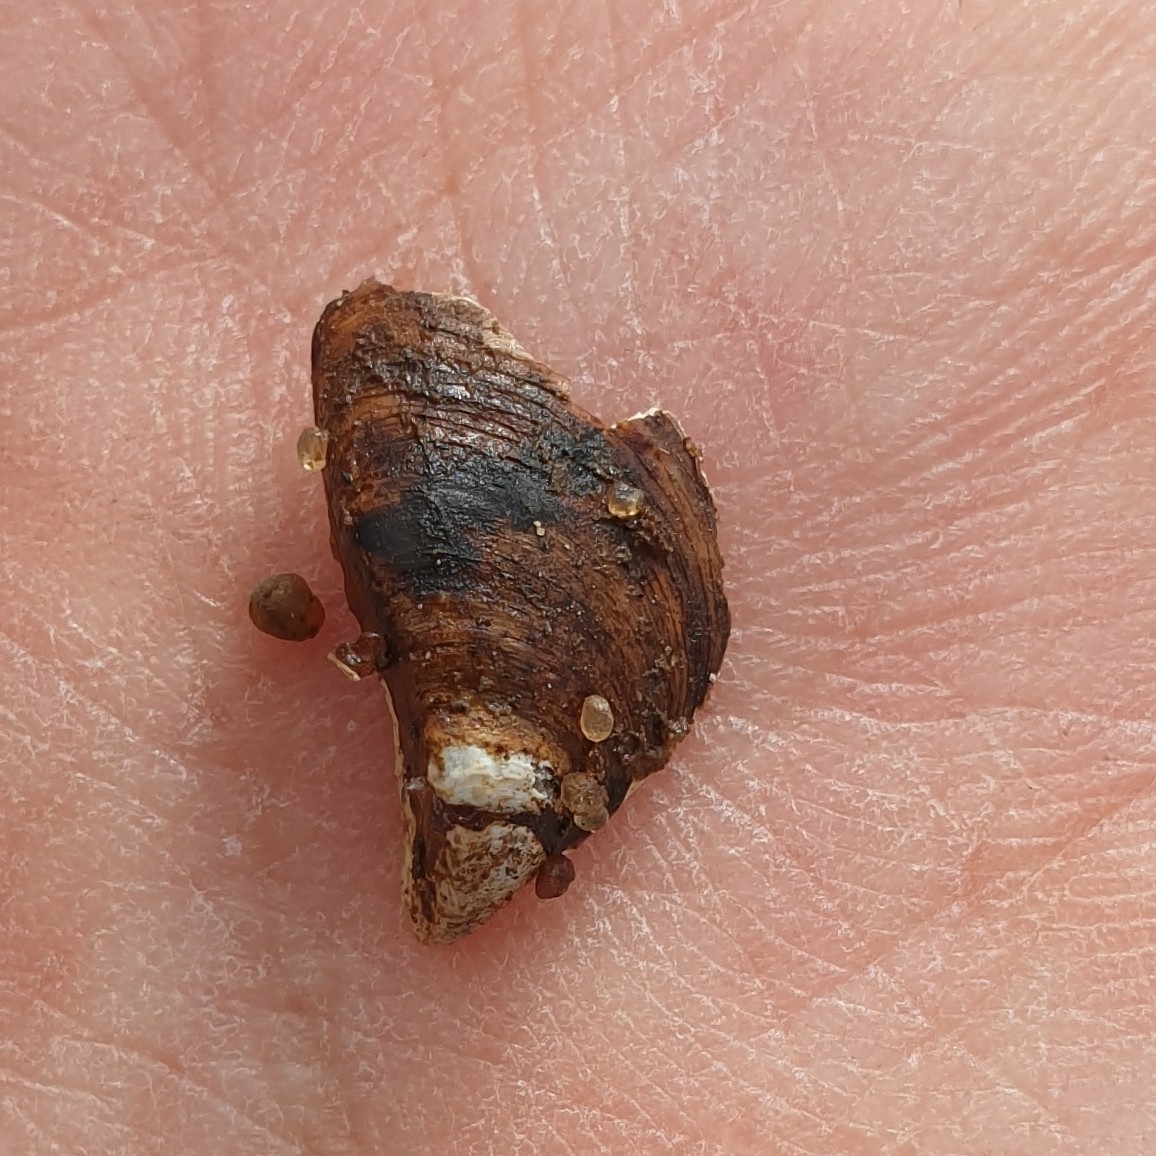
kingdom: Animalia
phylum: Mollusca
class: Bivalvia
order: Myida
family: Dreissenidae
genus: Dreissena
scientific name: Dreissena polymorpha
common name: Zebra mussel
